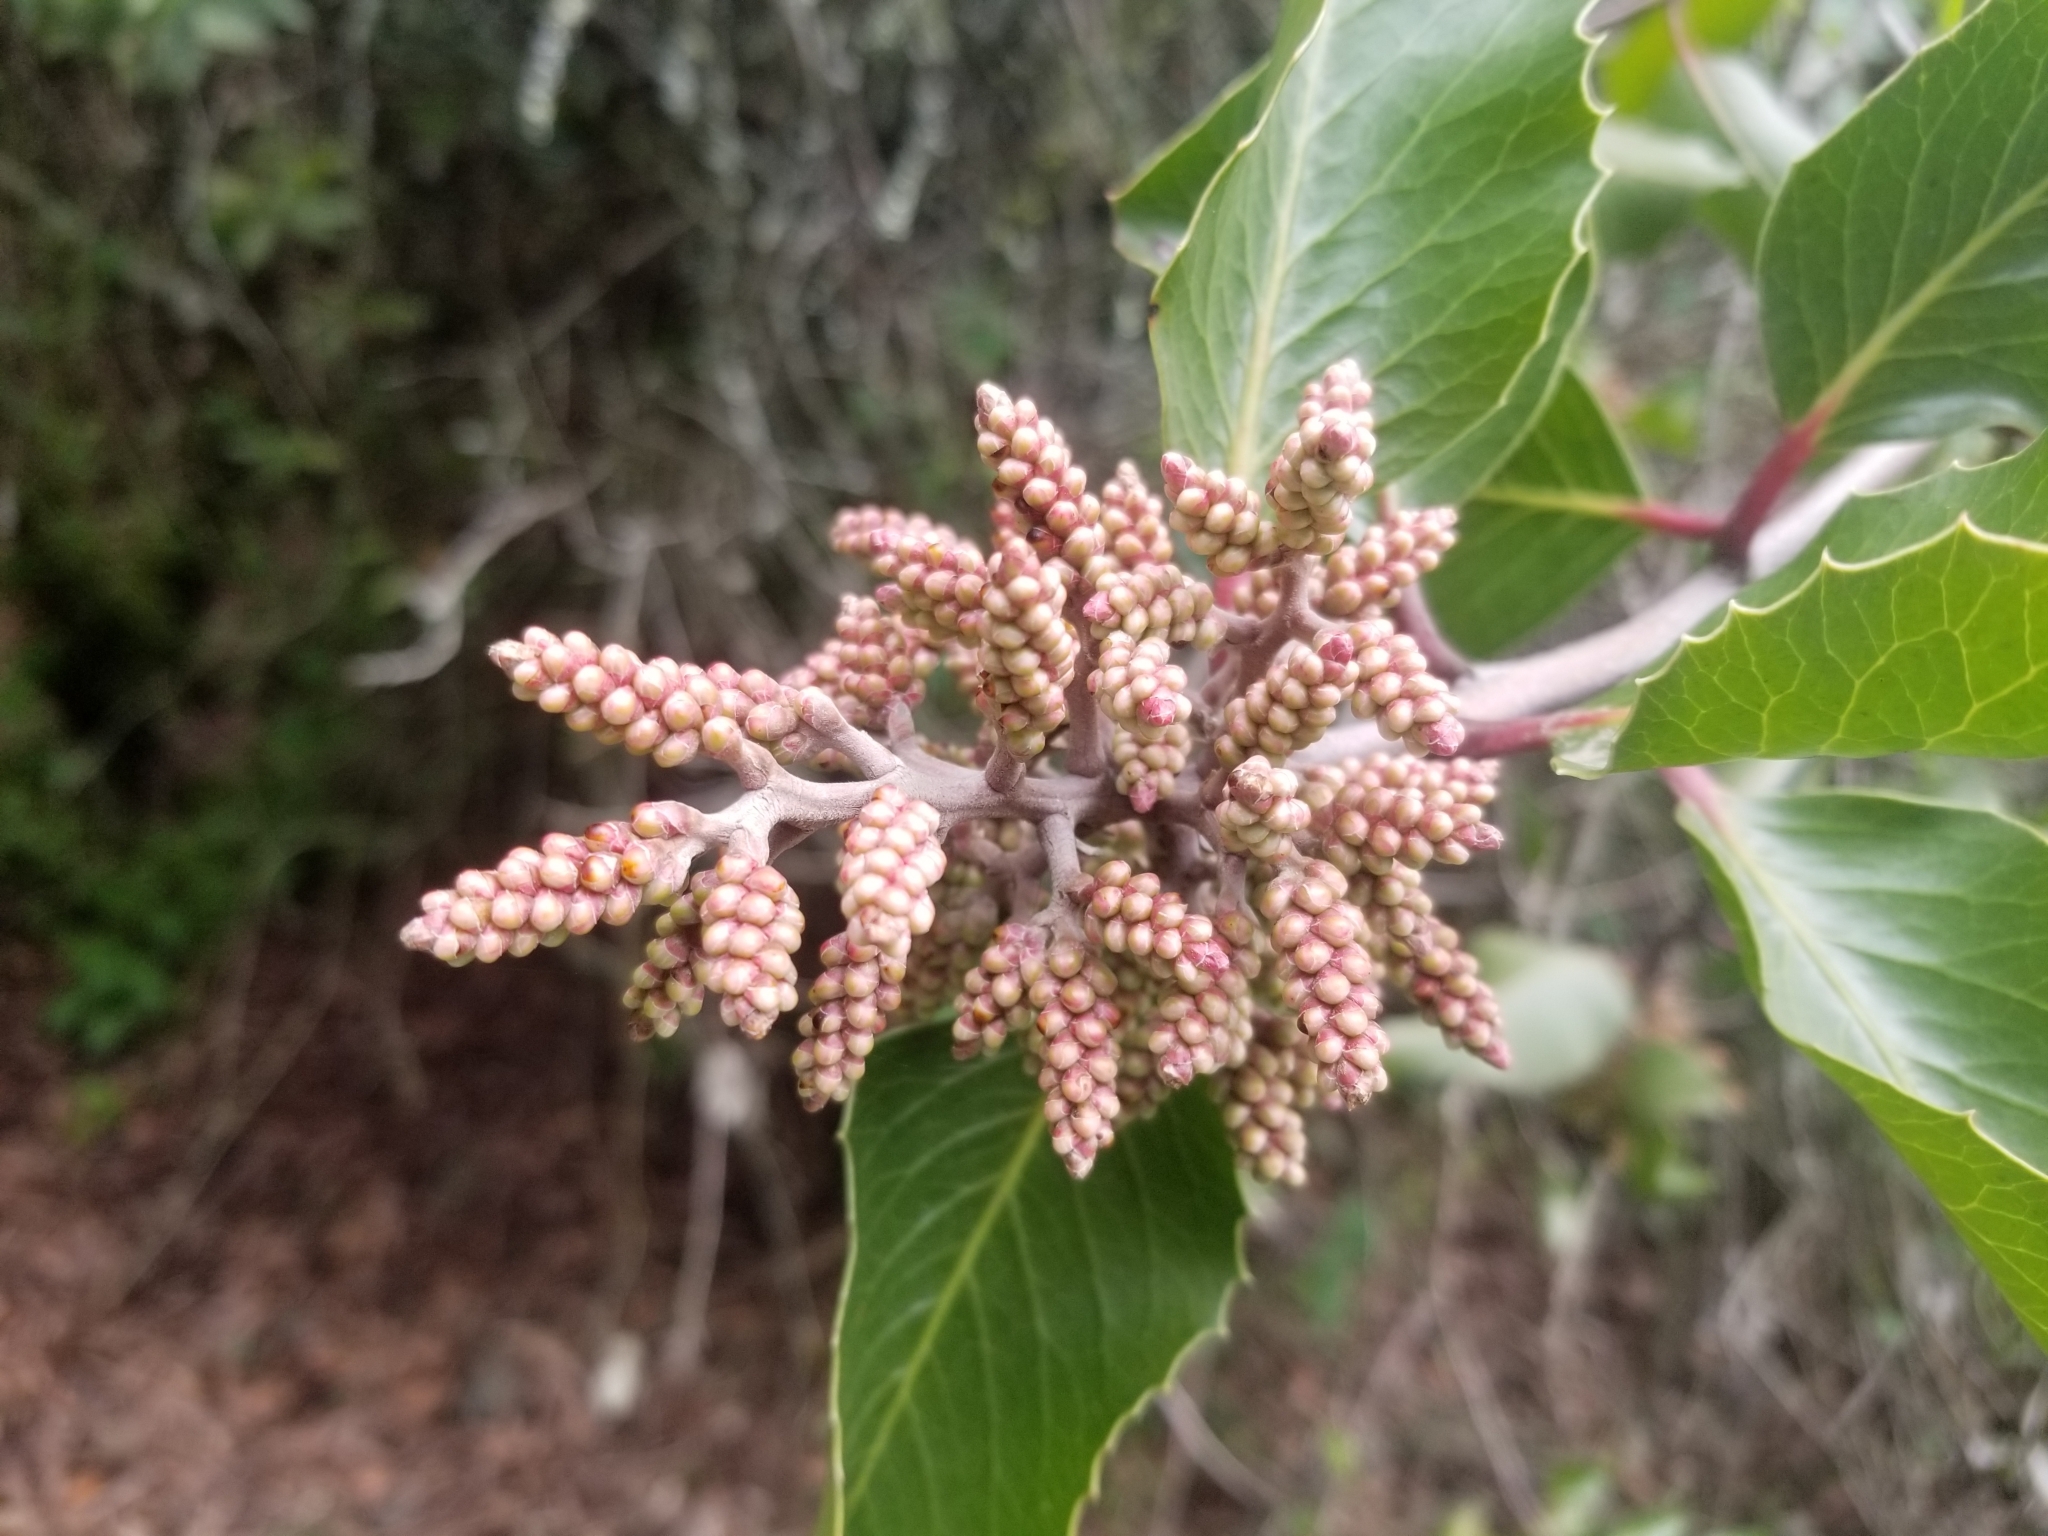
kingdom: Plantae
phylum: Tracheophyta
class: Magnoliopsida
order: Sapindales
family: Anacardiaceae
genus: Rhus
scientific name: Rhus ovata
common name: Sugar sumac
